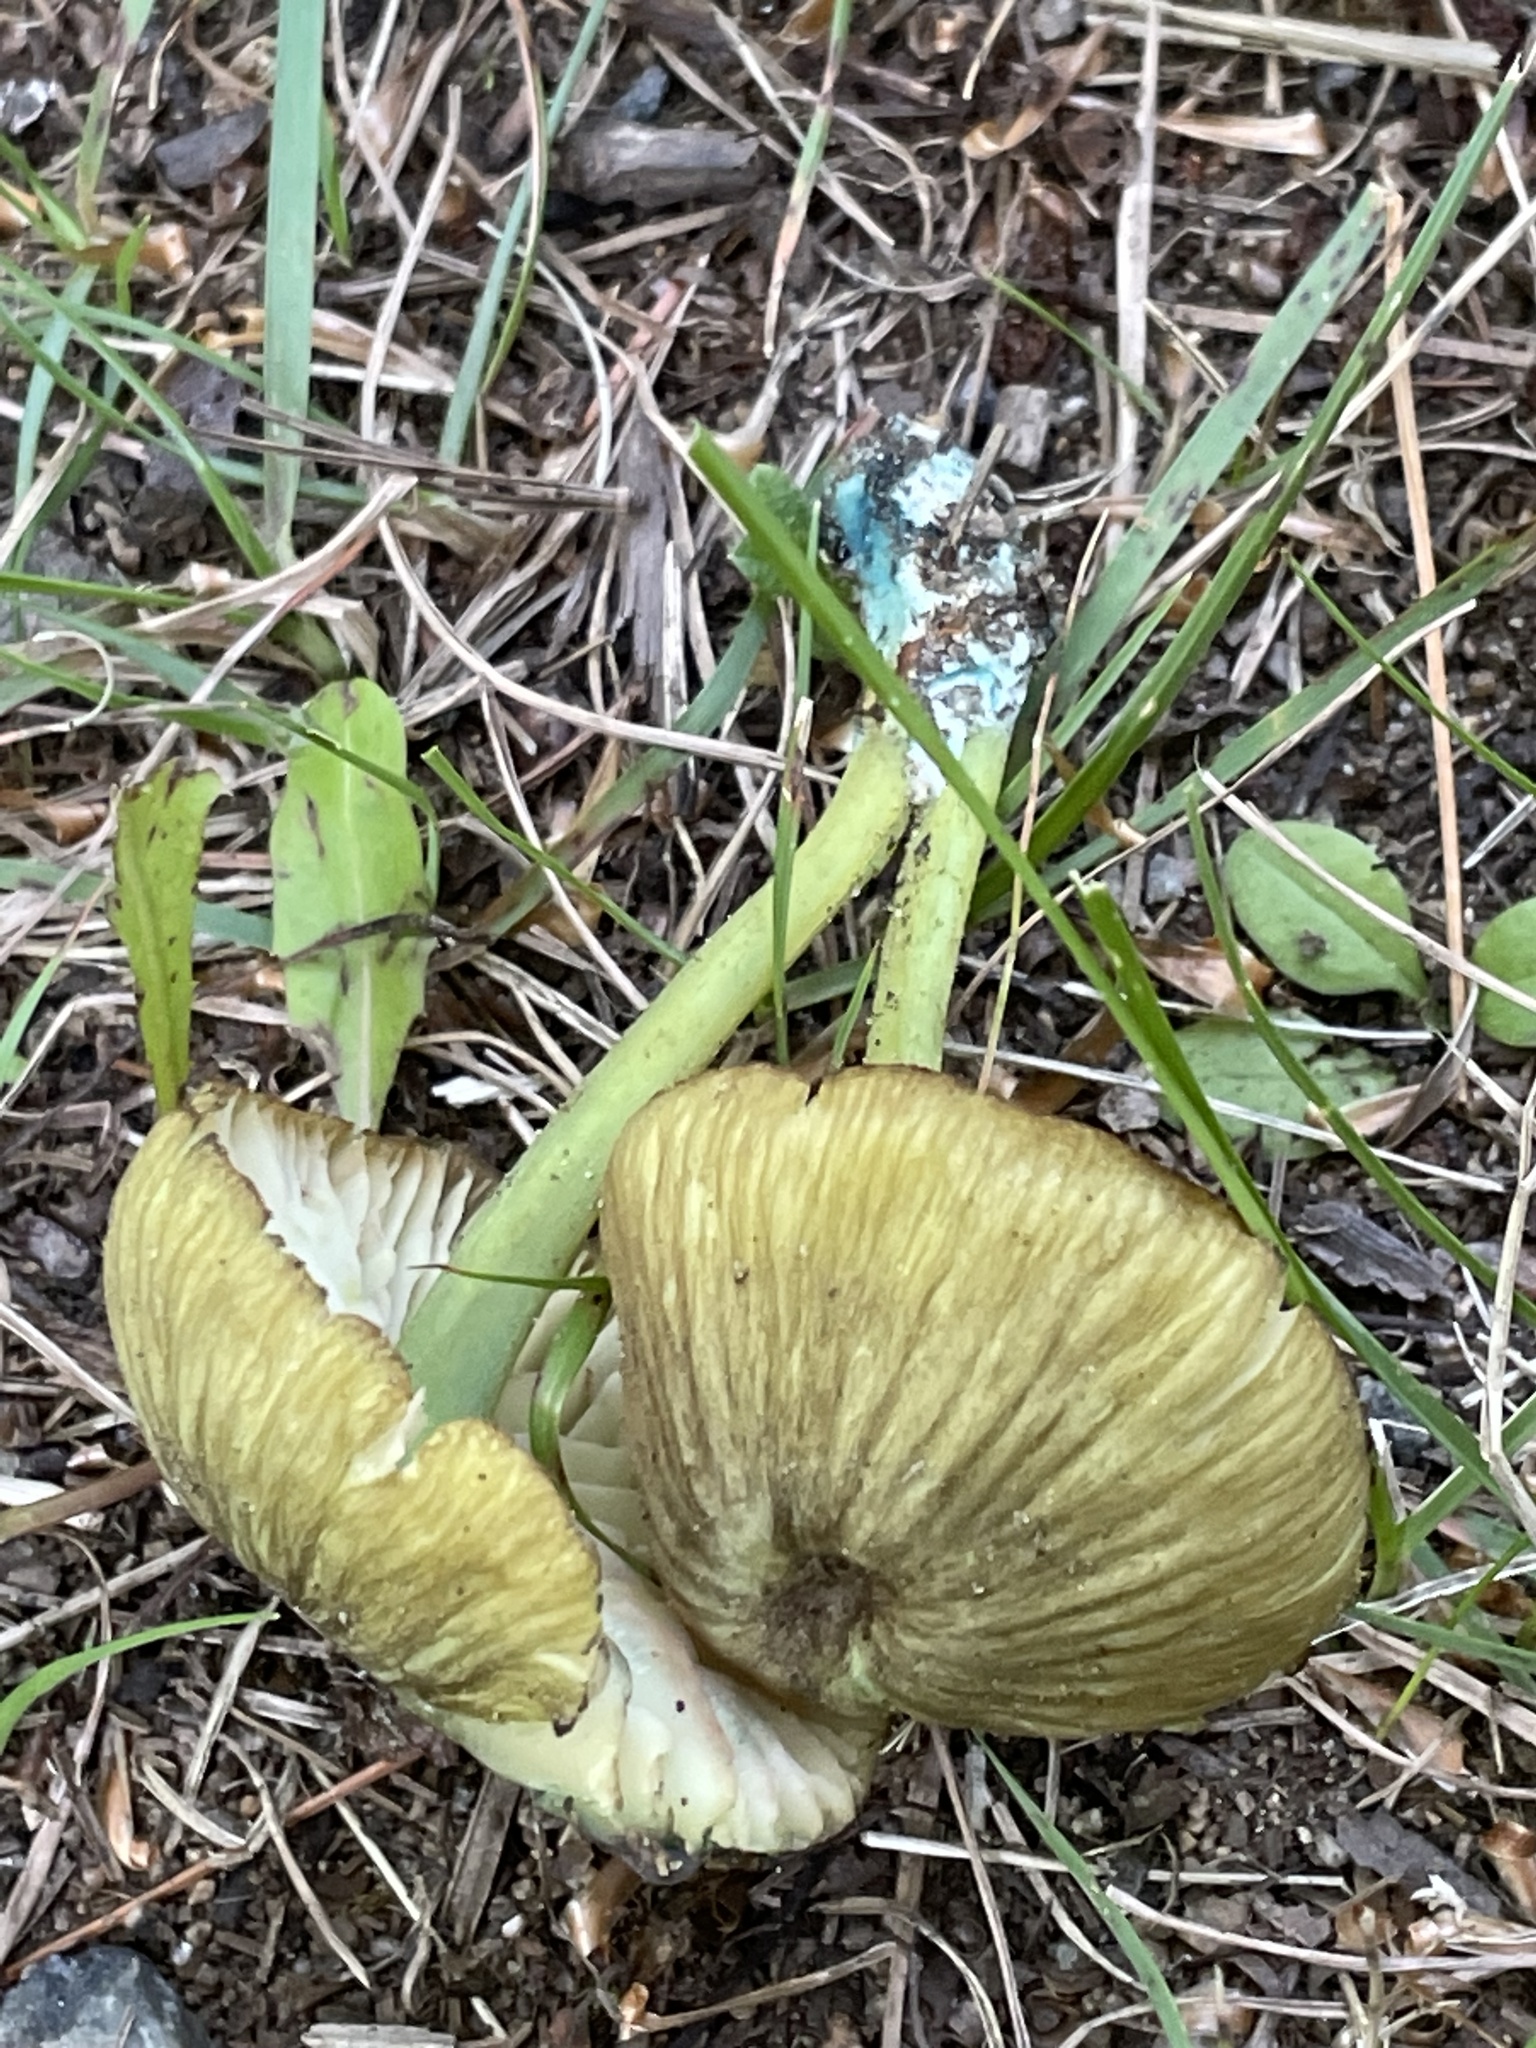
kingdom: Fungi
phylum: Basidiomycota
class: Agaricomycetes
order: Agaricales
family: Entolomataceae
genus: Entoloma
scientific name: Entoloma incanum
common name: Mousepee pinkgill
